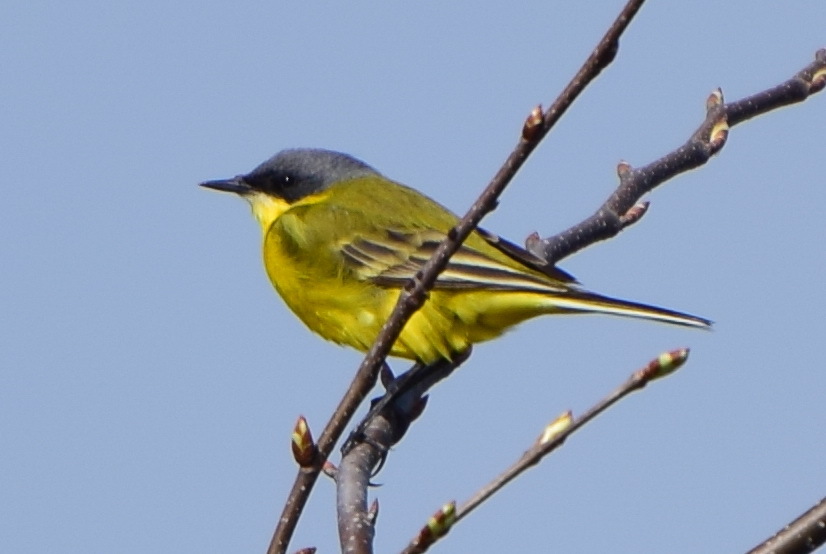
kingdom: Animalia
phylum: Chordata
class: Aves
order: Passeriformes
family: Motacillidae
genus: Motacilla
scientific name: Motacilla flava
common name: Western yellow wagtail
